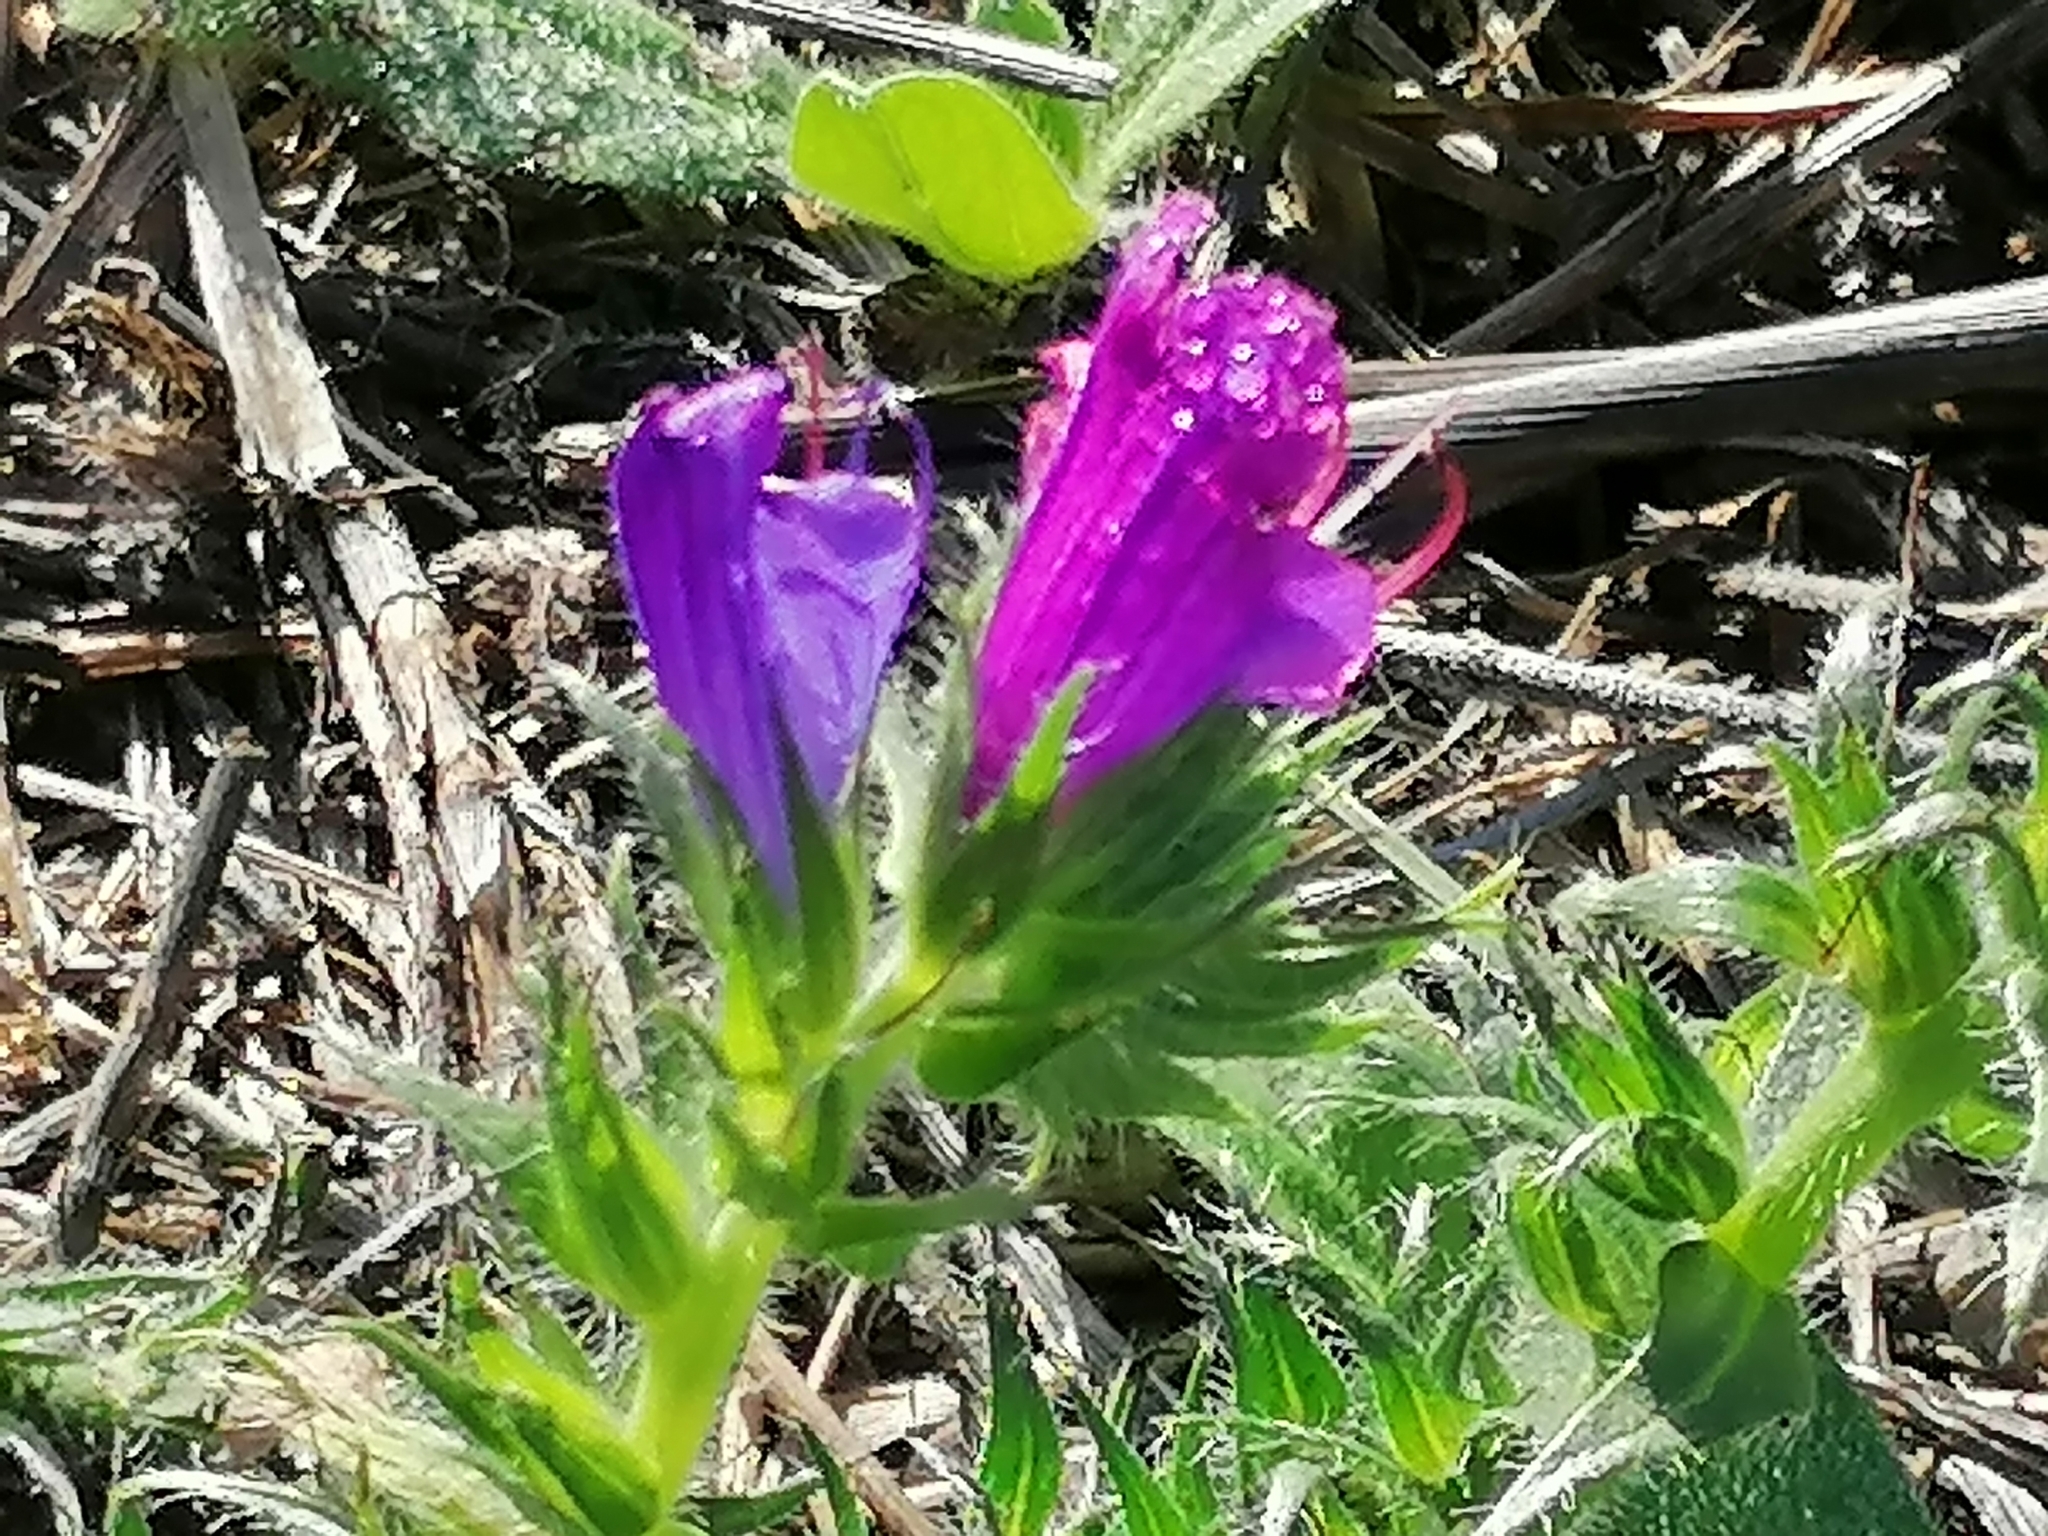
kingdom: Plantae
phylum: Tracheophyta
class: Magnoliopsida
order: Boraginales
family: Boraginaceae
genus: Echium
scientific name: Echium plantagineum
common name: Purple viper's-bugloss
